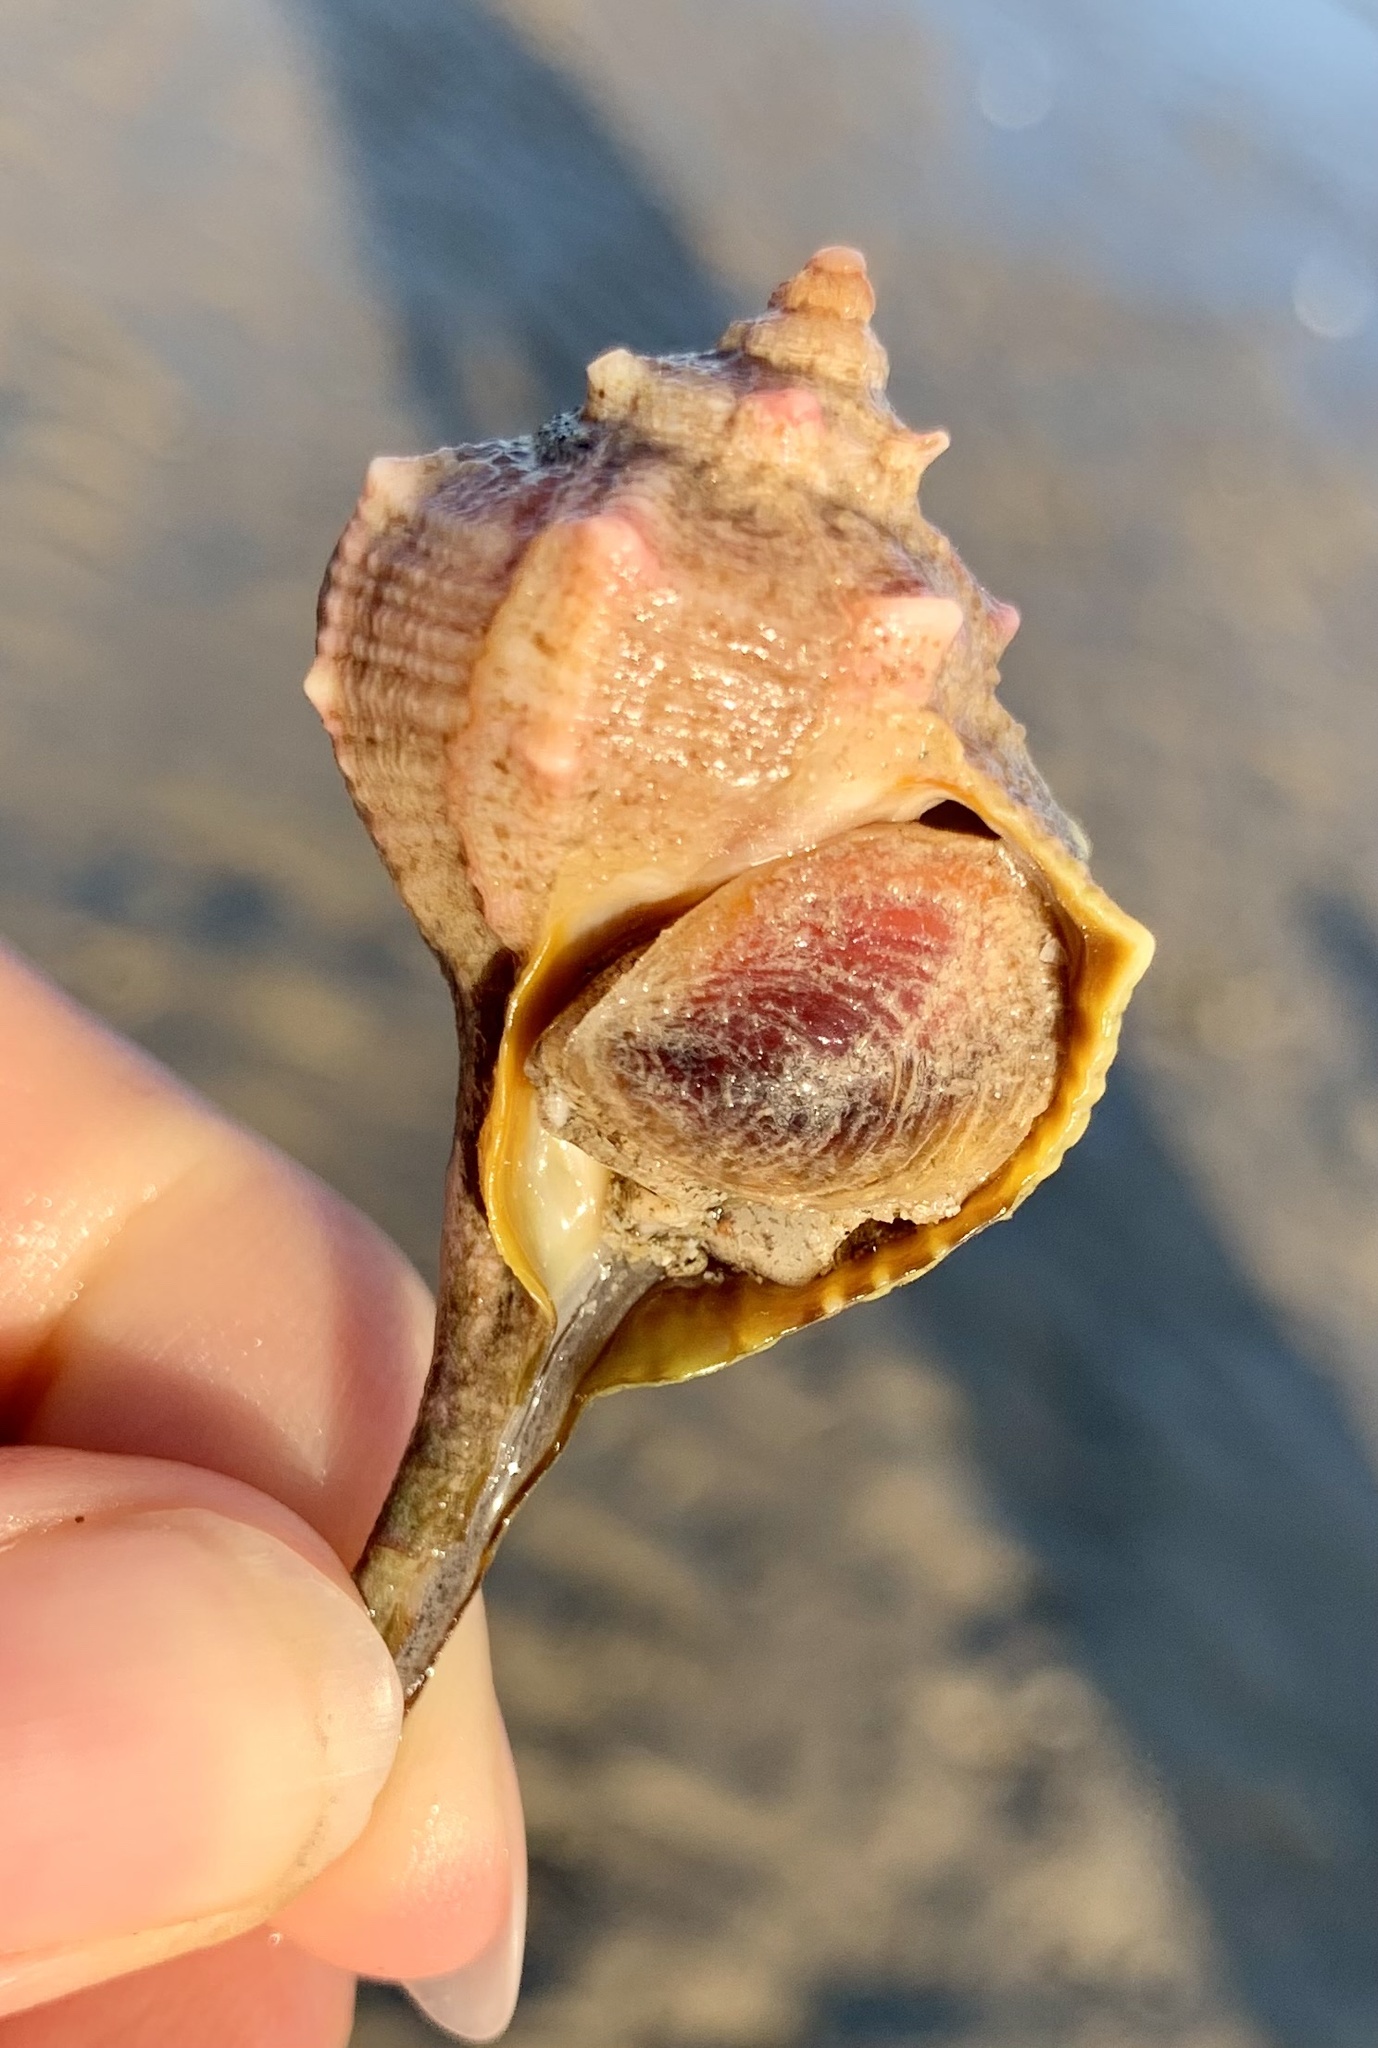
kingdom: Animalia
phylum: Mollusca
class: Gastropoda
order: Neogastropoda
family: Muricidae
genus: Bolinus
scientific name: Bolinus brandaris
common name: Dye murex
